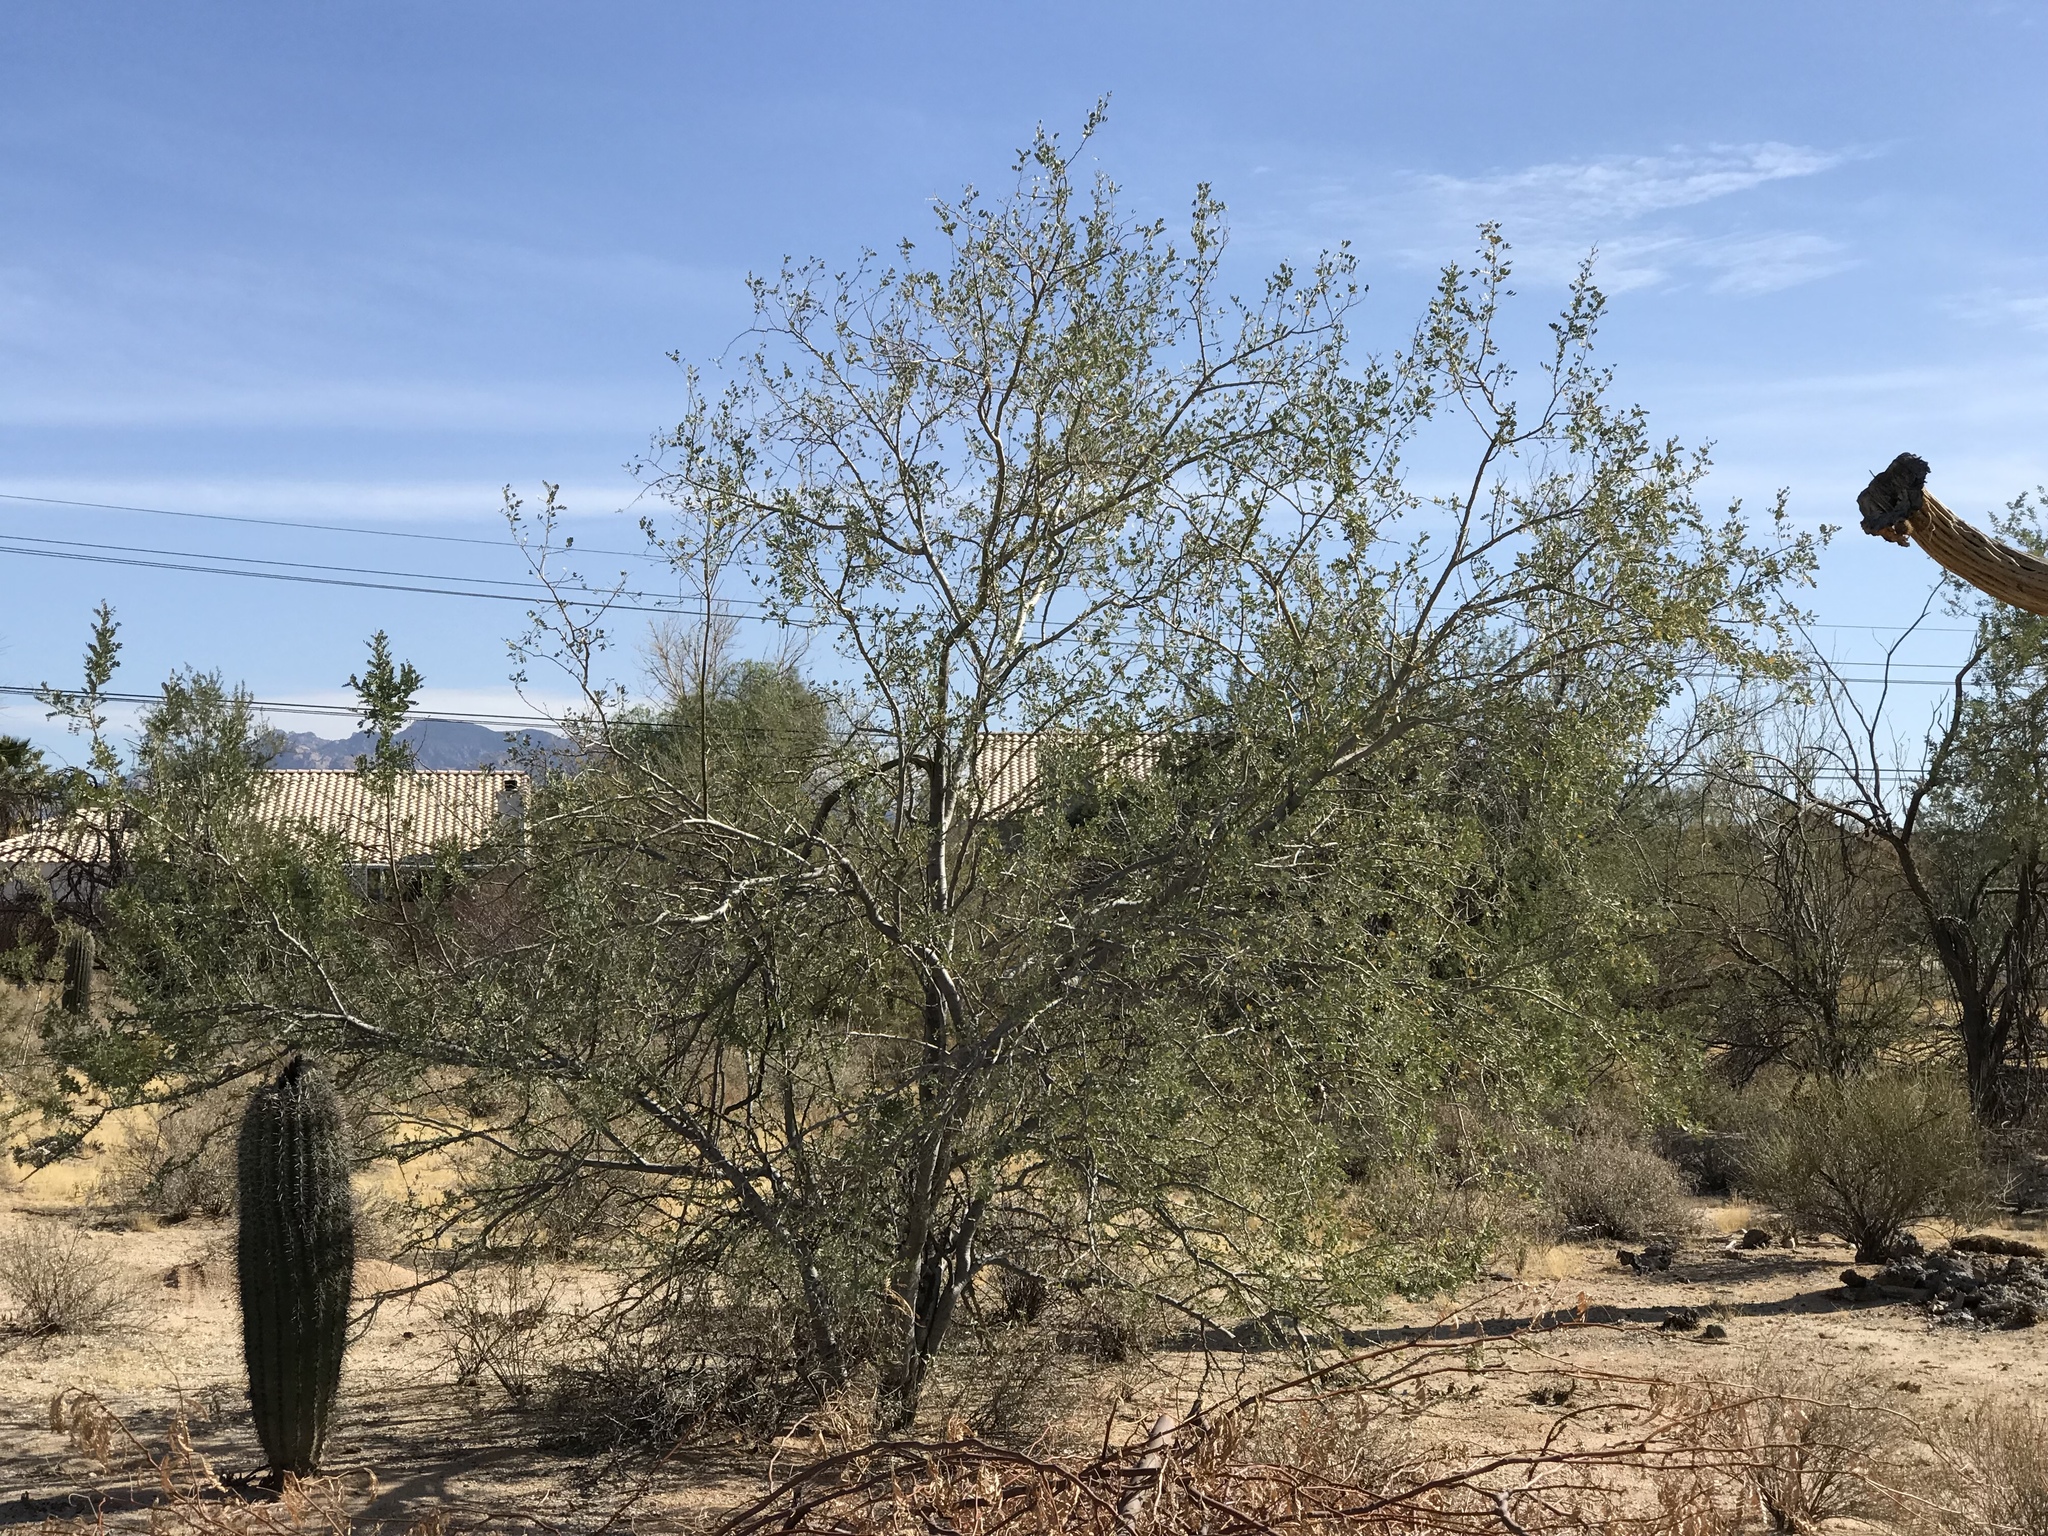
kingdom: Plantae
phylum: Tracheophyta
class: Magnoliopsida
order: Fabales
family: Fabaceae
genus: Olneya
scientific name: Olneya tesota
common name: Desert ironwood
